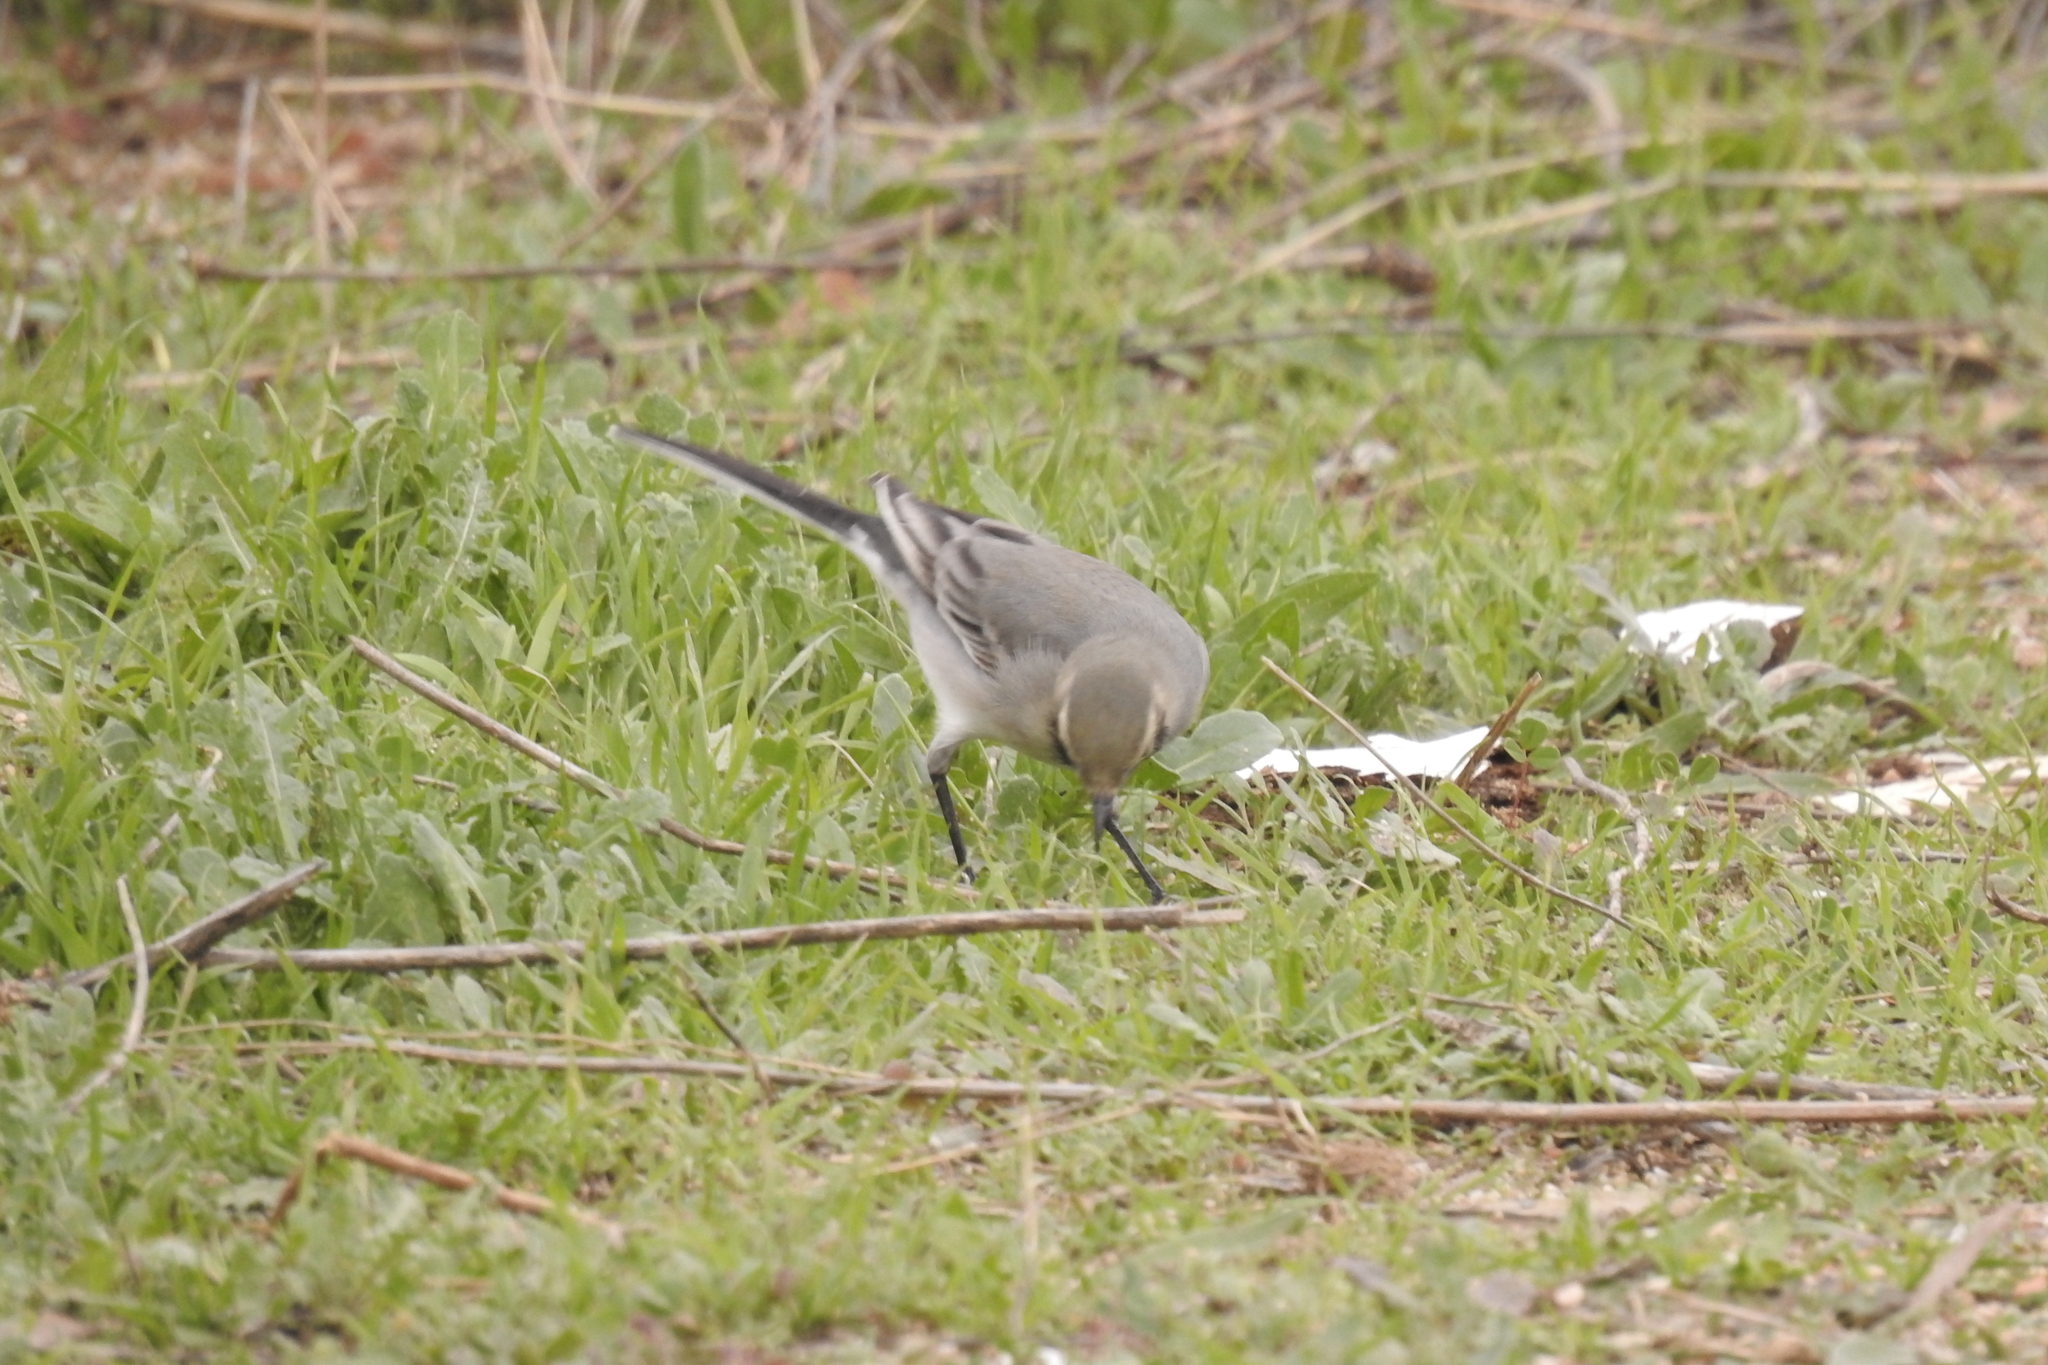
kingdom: Animalia
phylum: Chordata
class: Aves
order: Passeriformes
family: Motacillidae
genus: Motacilla
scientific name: Motacilla alba
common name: White wagtail
